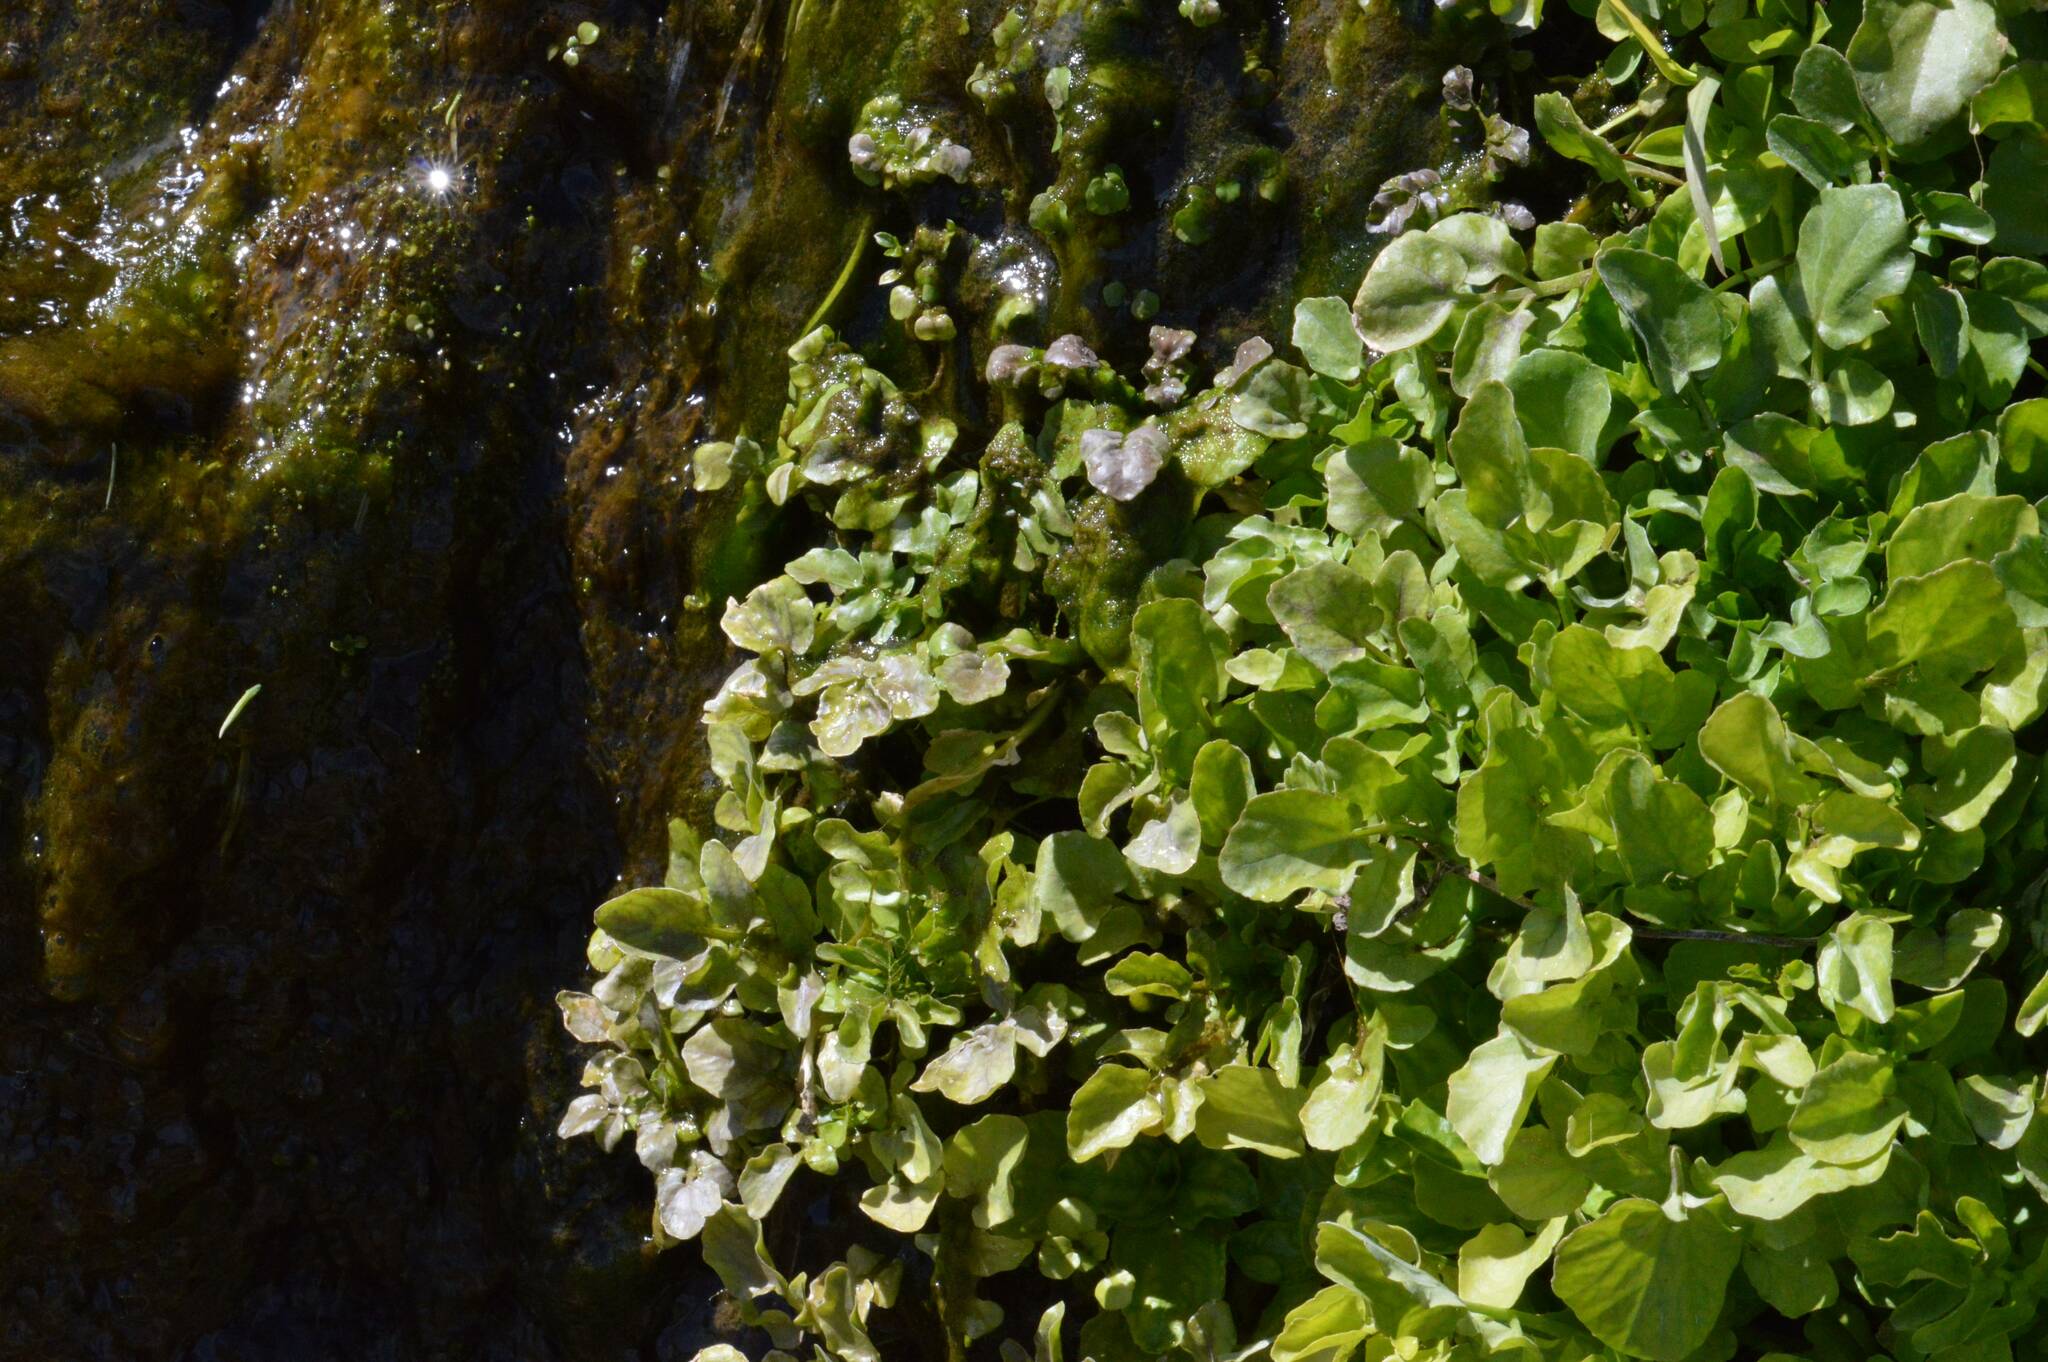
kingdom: Plantae
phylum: Tracheophyta
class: Magnoliopsida
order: Brassicales
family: Brassicaceae
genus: Nasturtium
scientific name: Nasturtium officinale
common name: Watercress
